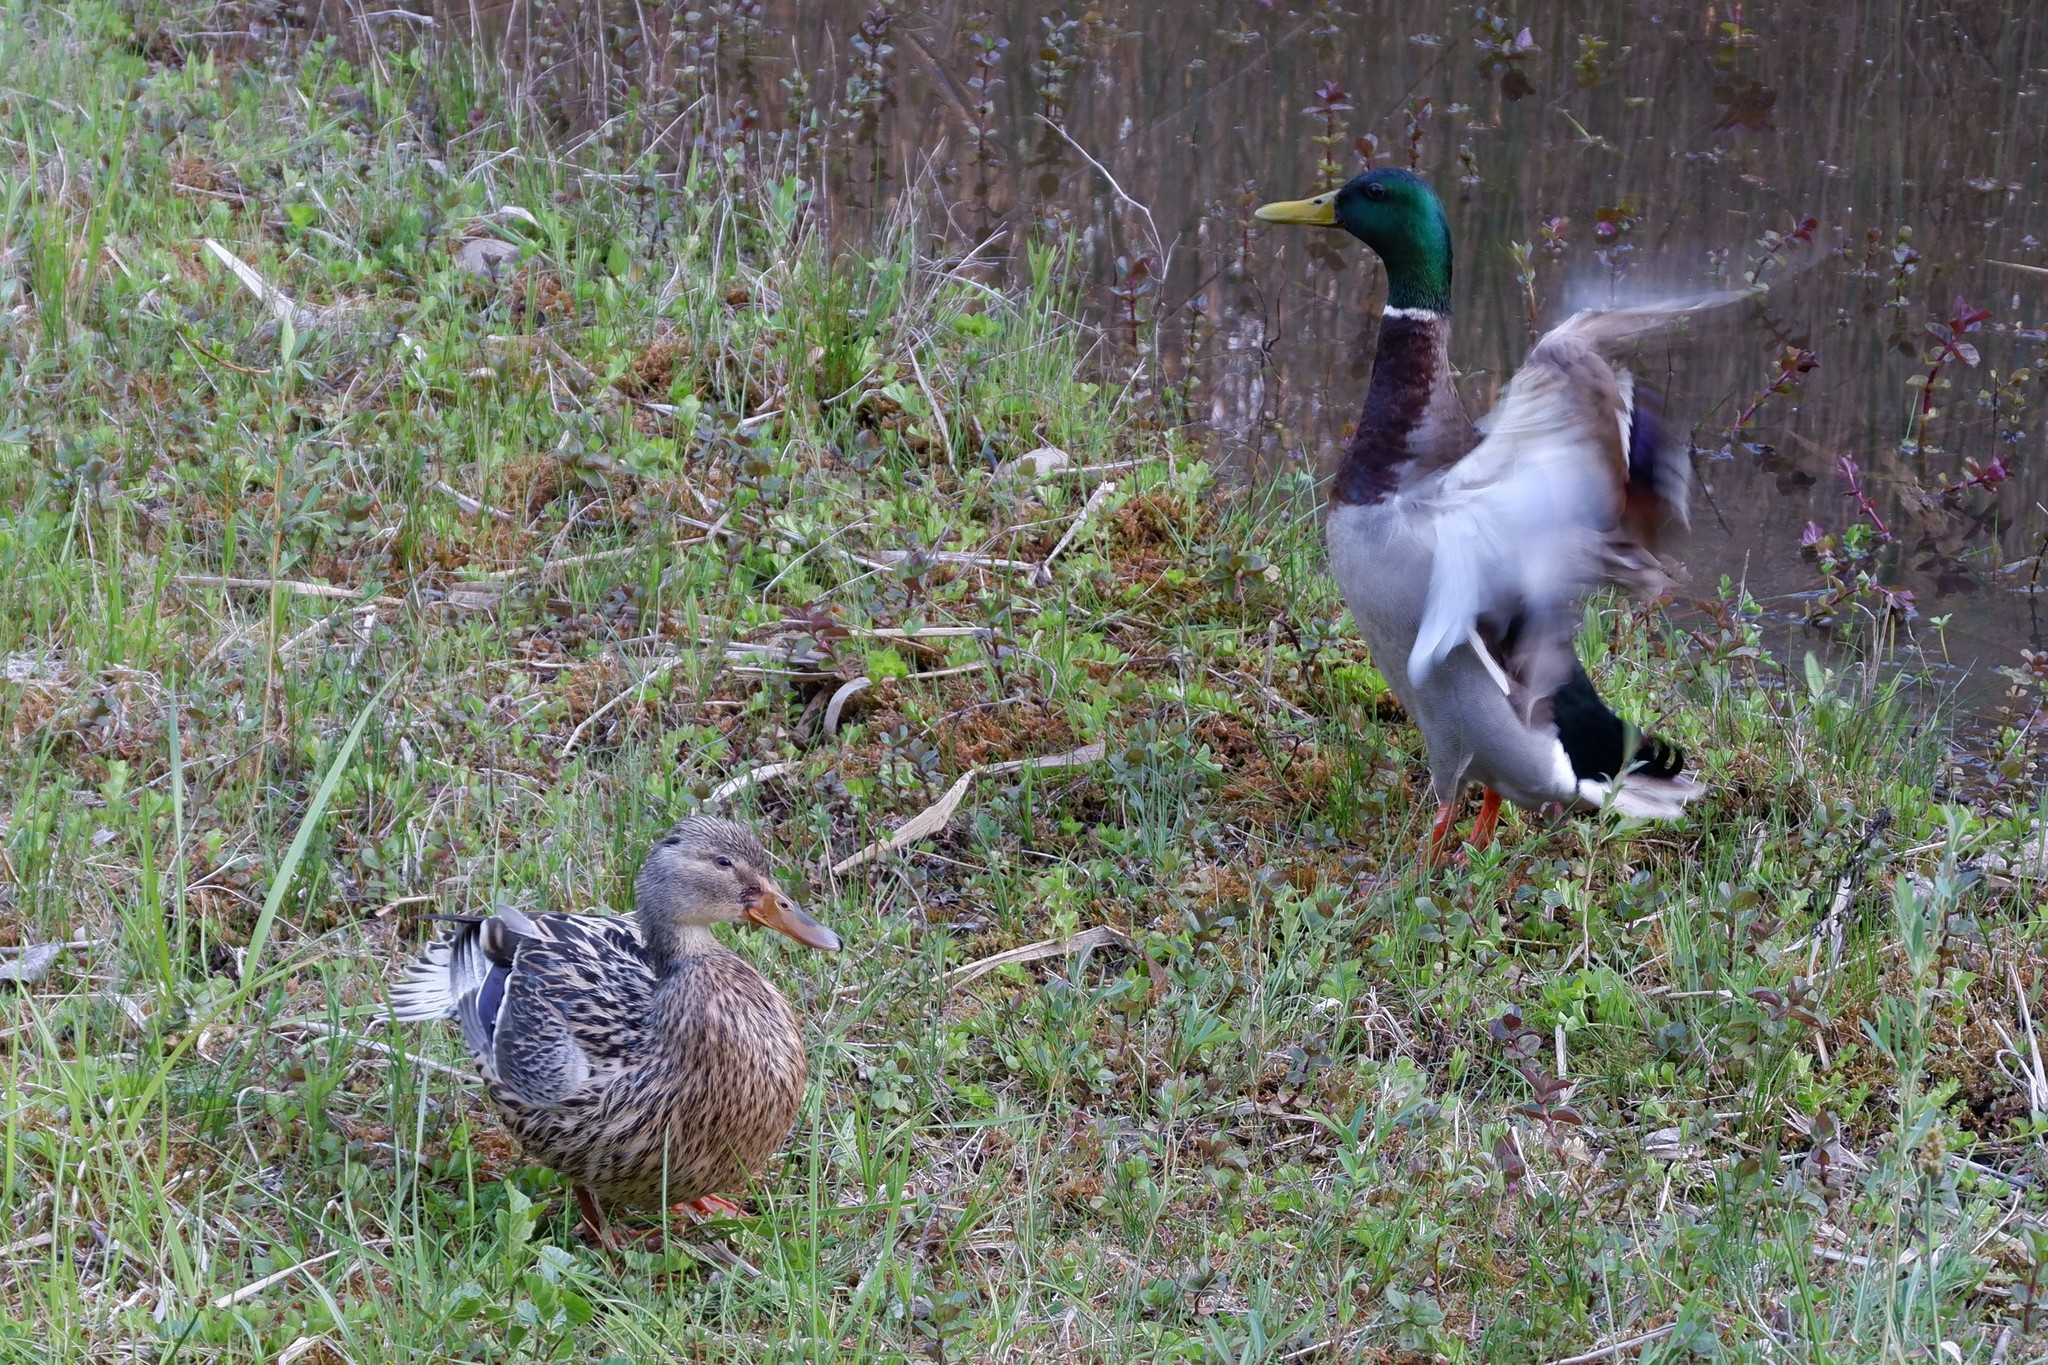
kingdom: Animalia
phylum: Chordata
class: Aves
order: Anseriformes
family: Anatidae
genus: Anas
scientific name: Anas platyrhynchos
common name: Mallard
